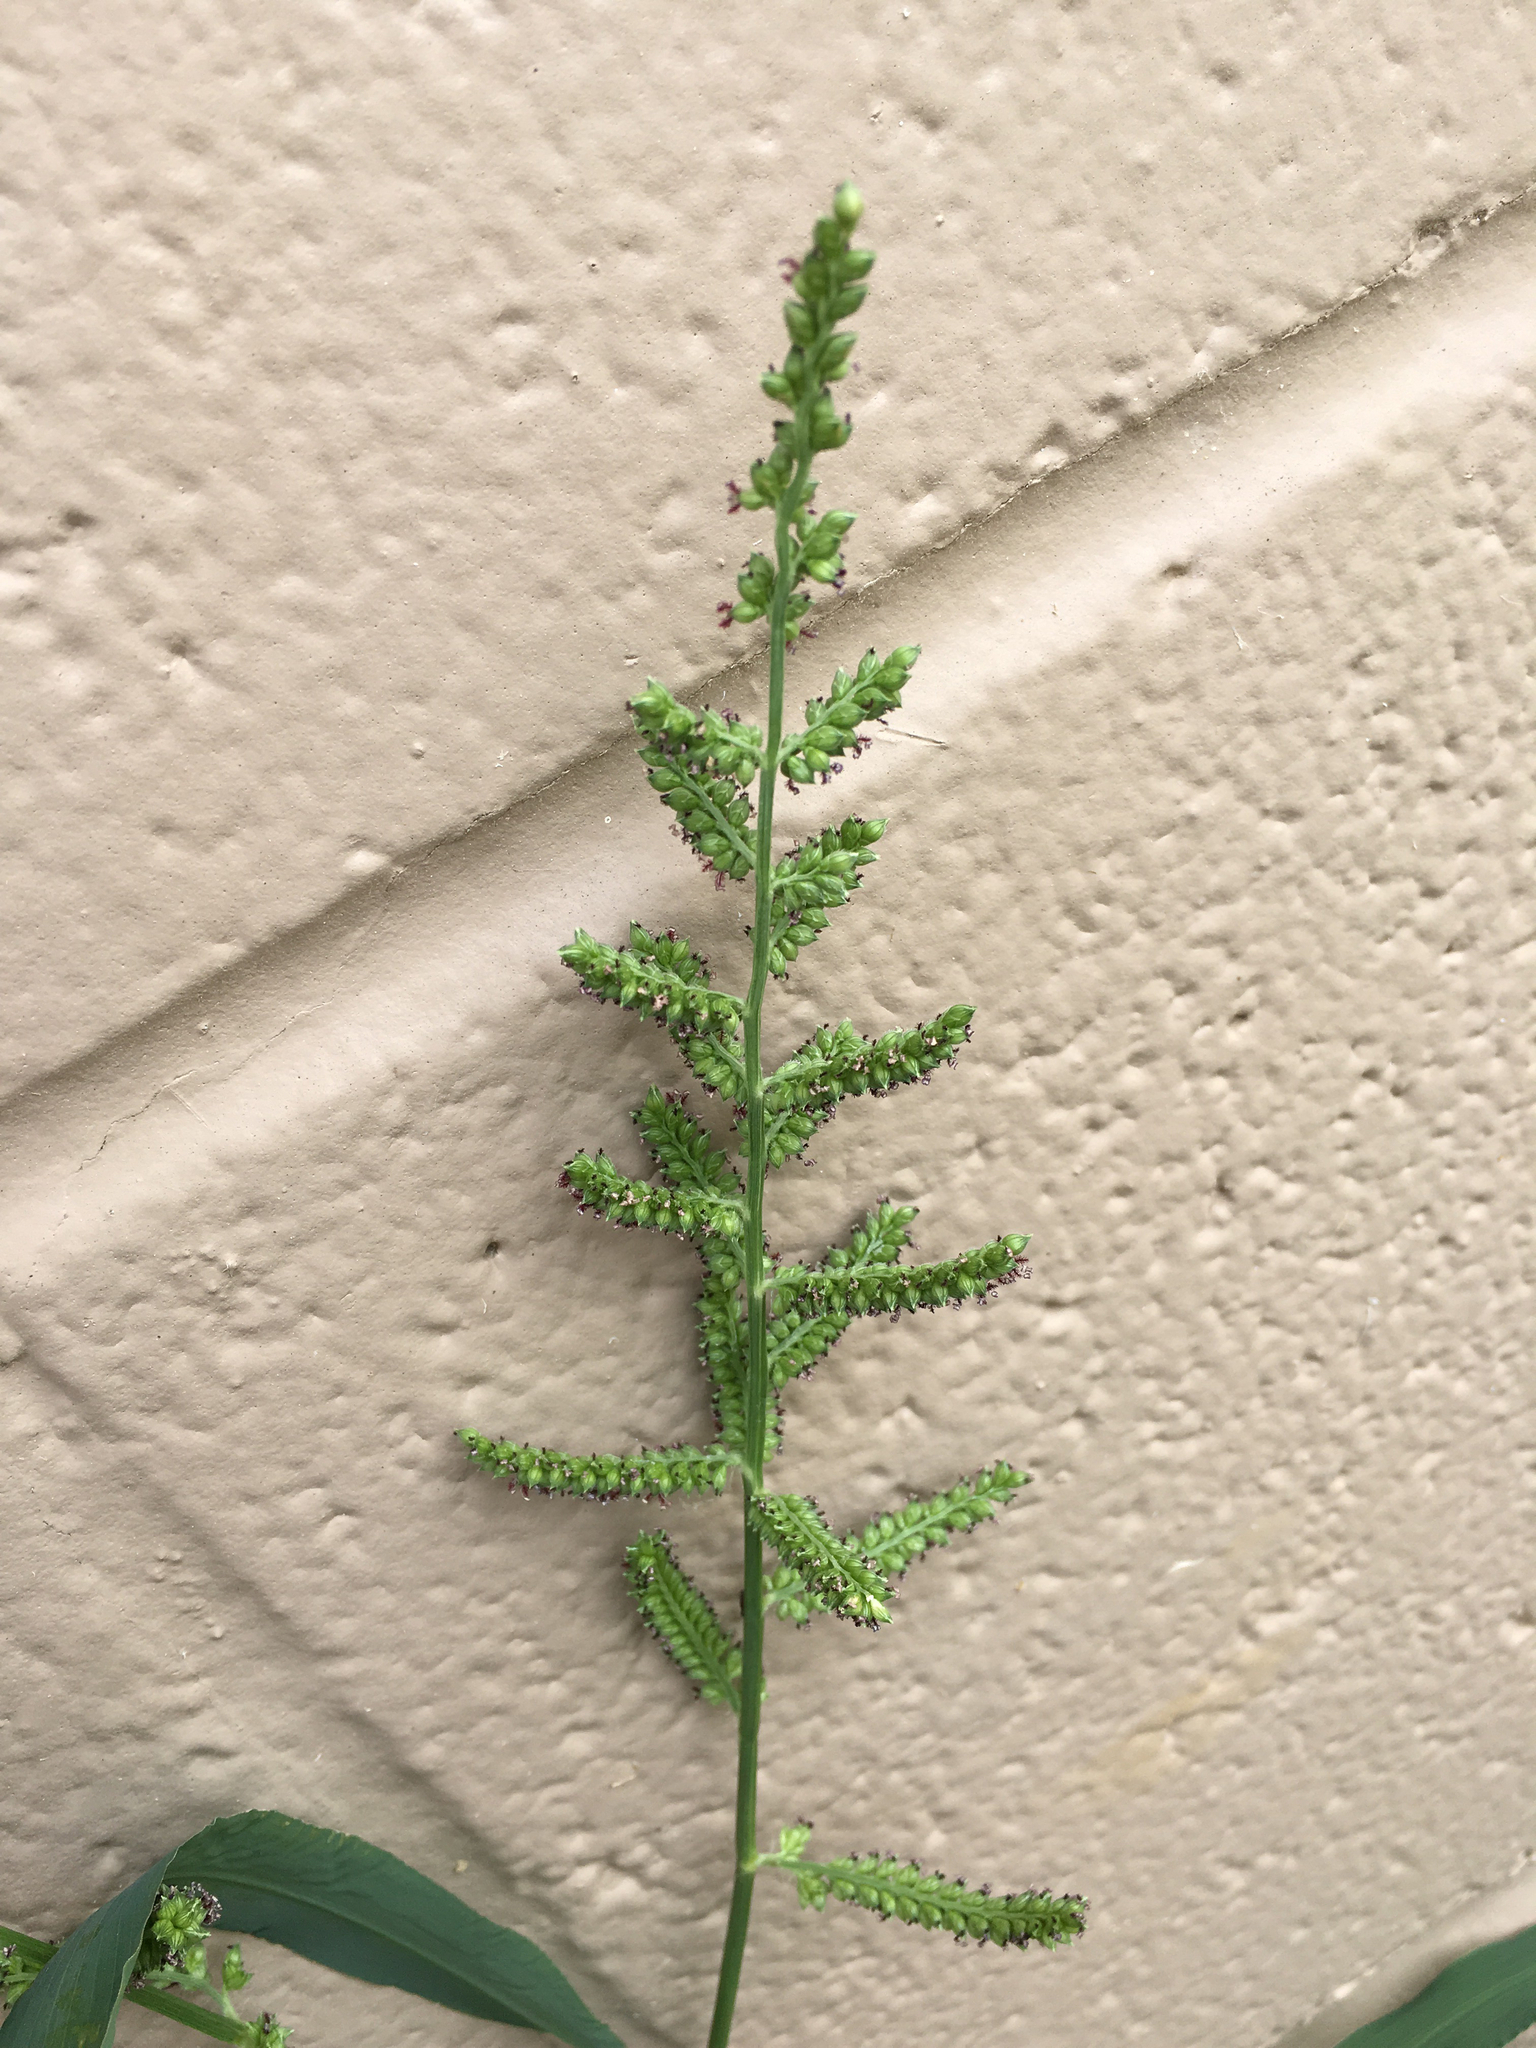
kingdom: Plantae
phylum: Tracheophyta
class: Liliopsida
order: Poales
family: Poaceae
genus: Echinochloa
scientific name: Echinochloa crus-galli
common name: Cockspur
